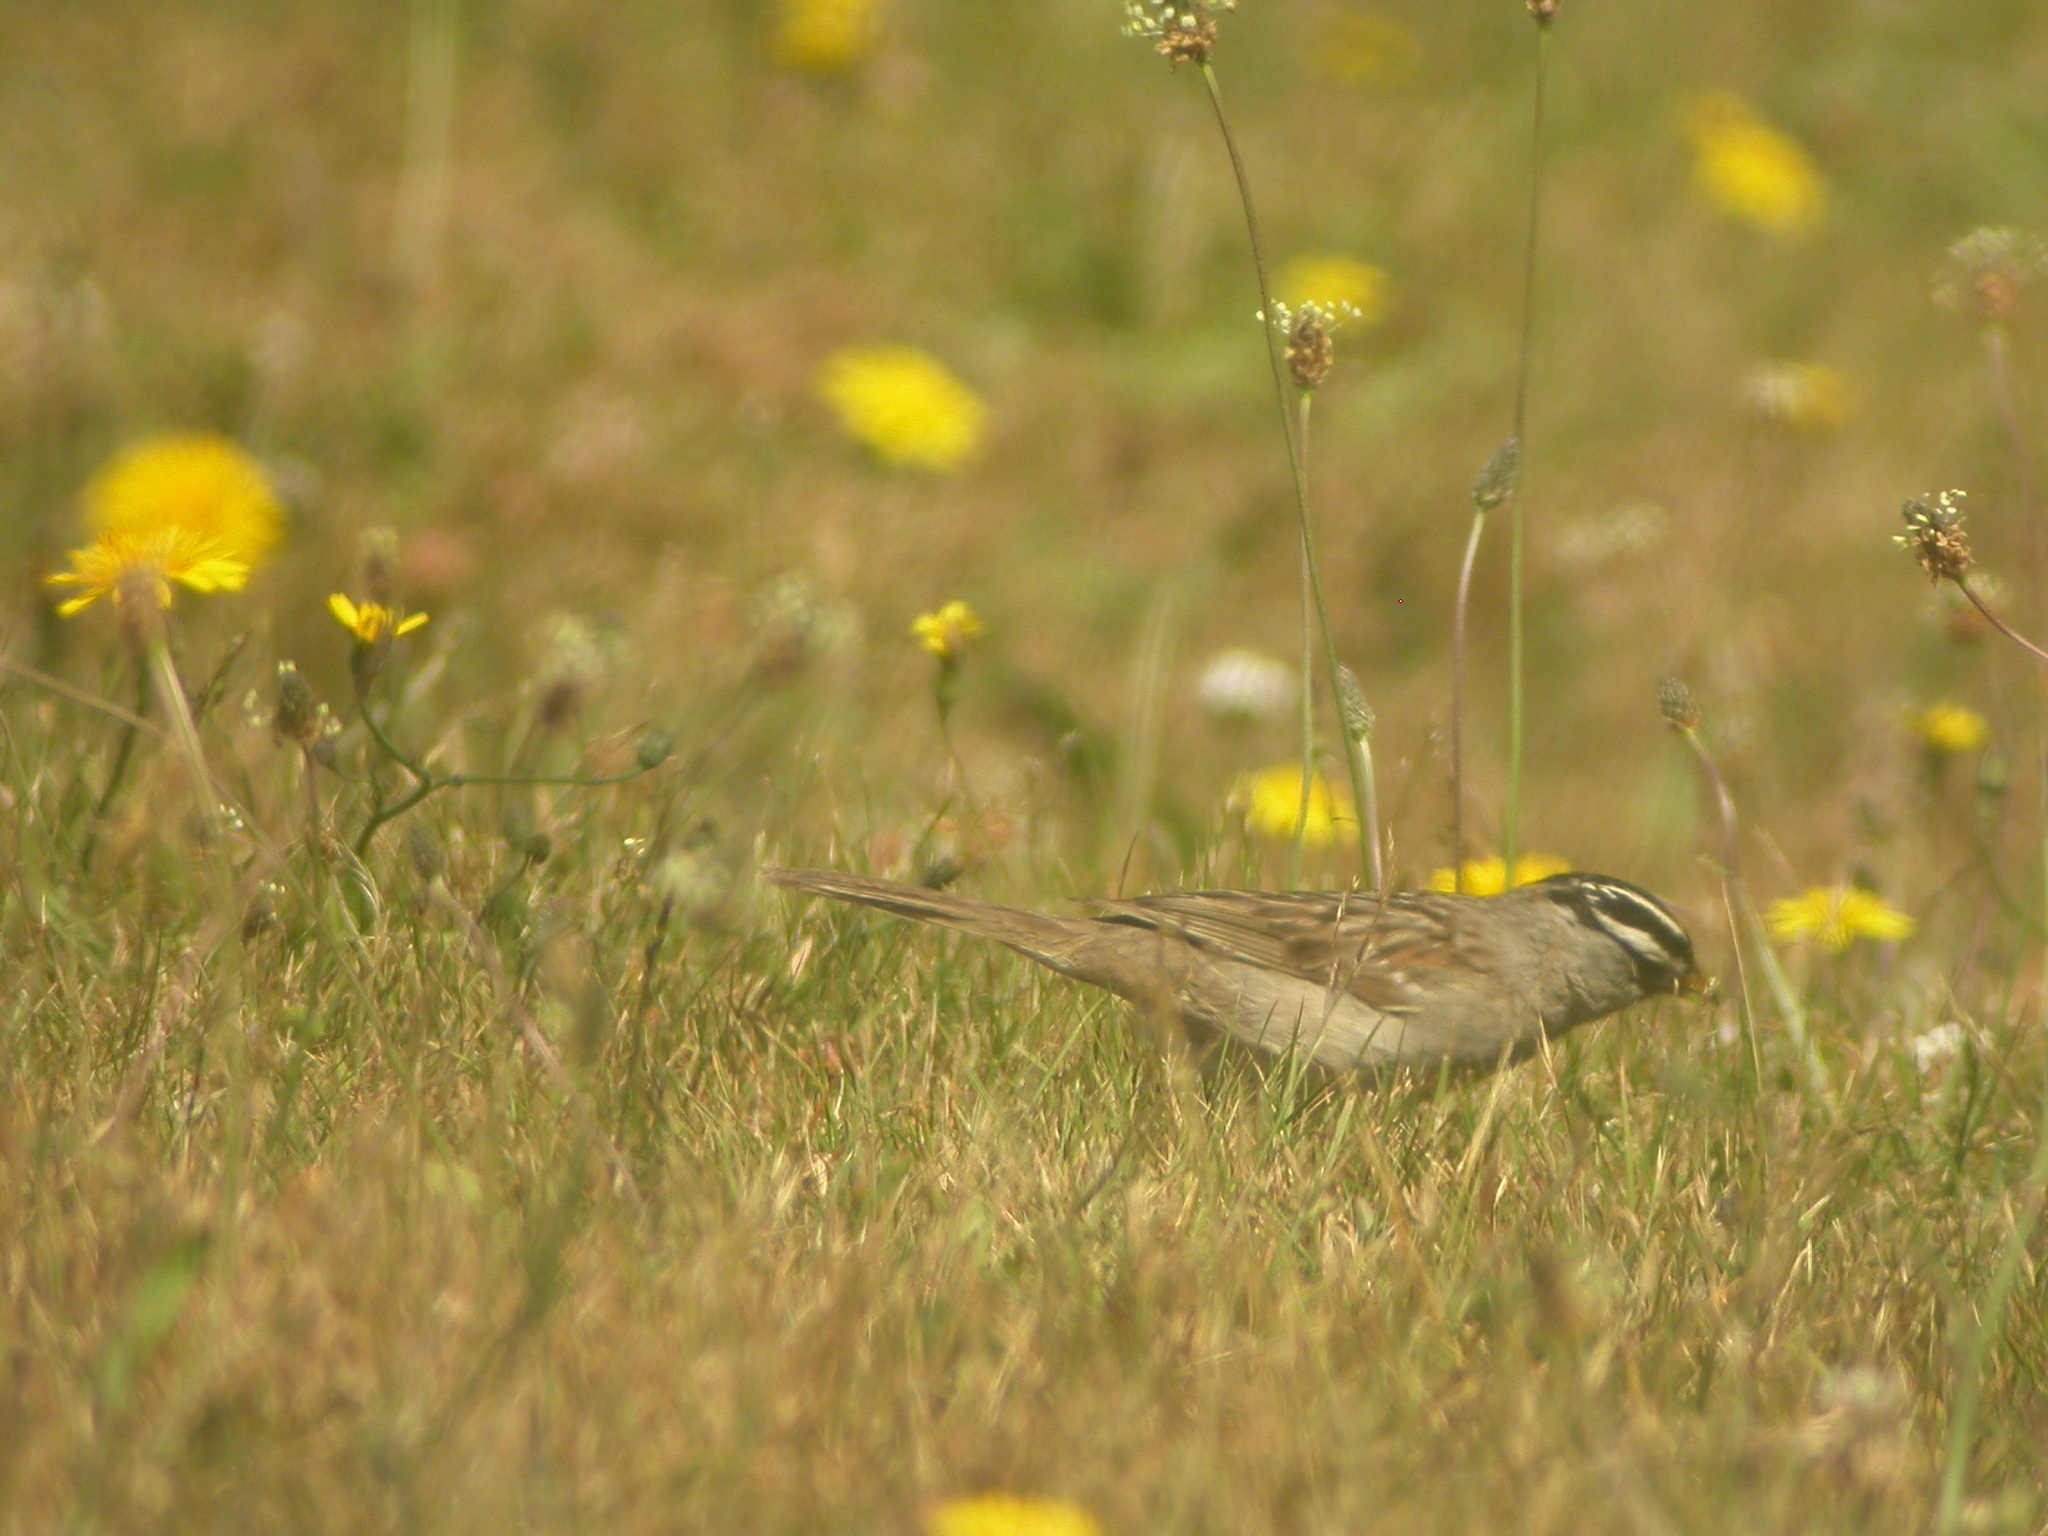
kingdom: Animalia
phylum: Chordata
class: Aves
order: Passeriformes
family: Passerellidae
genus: Zonotrichia
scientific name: Zonotrichia leucophrys
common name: White-crowned sparrow
